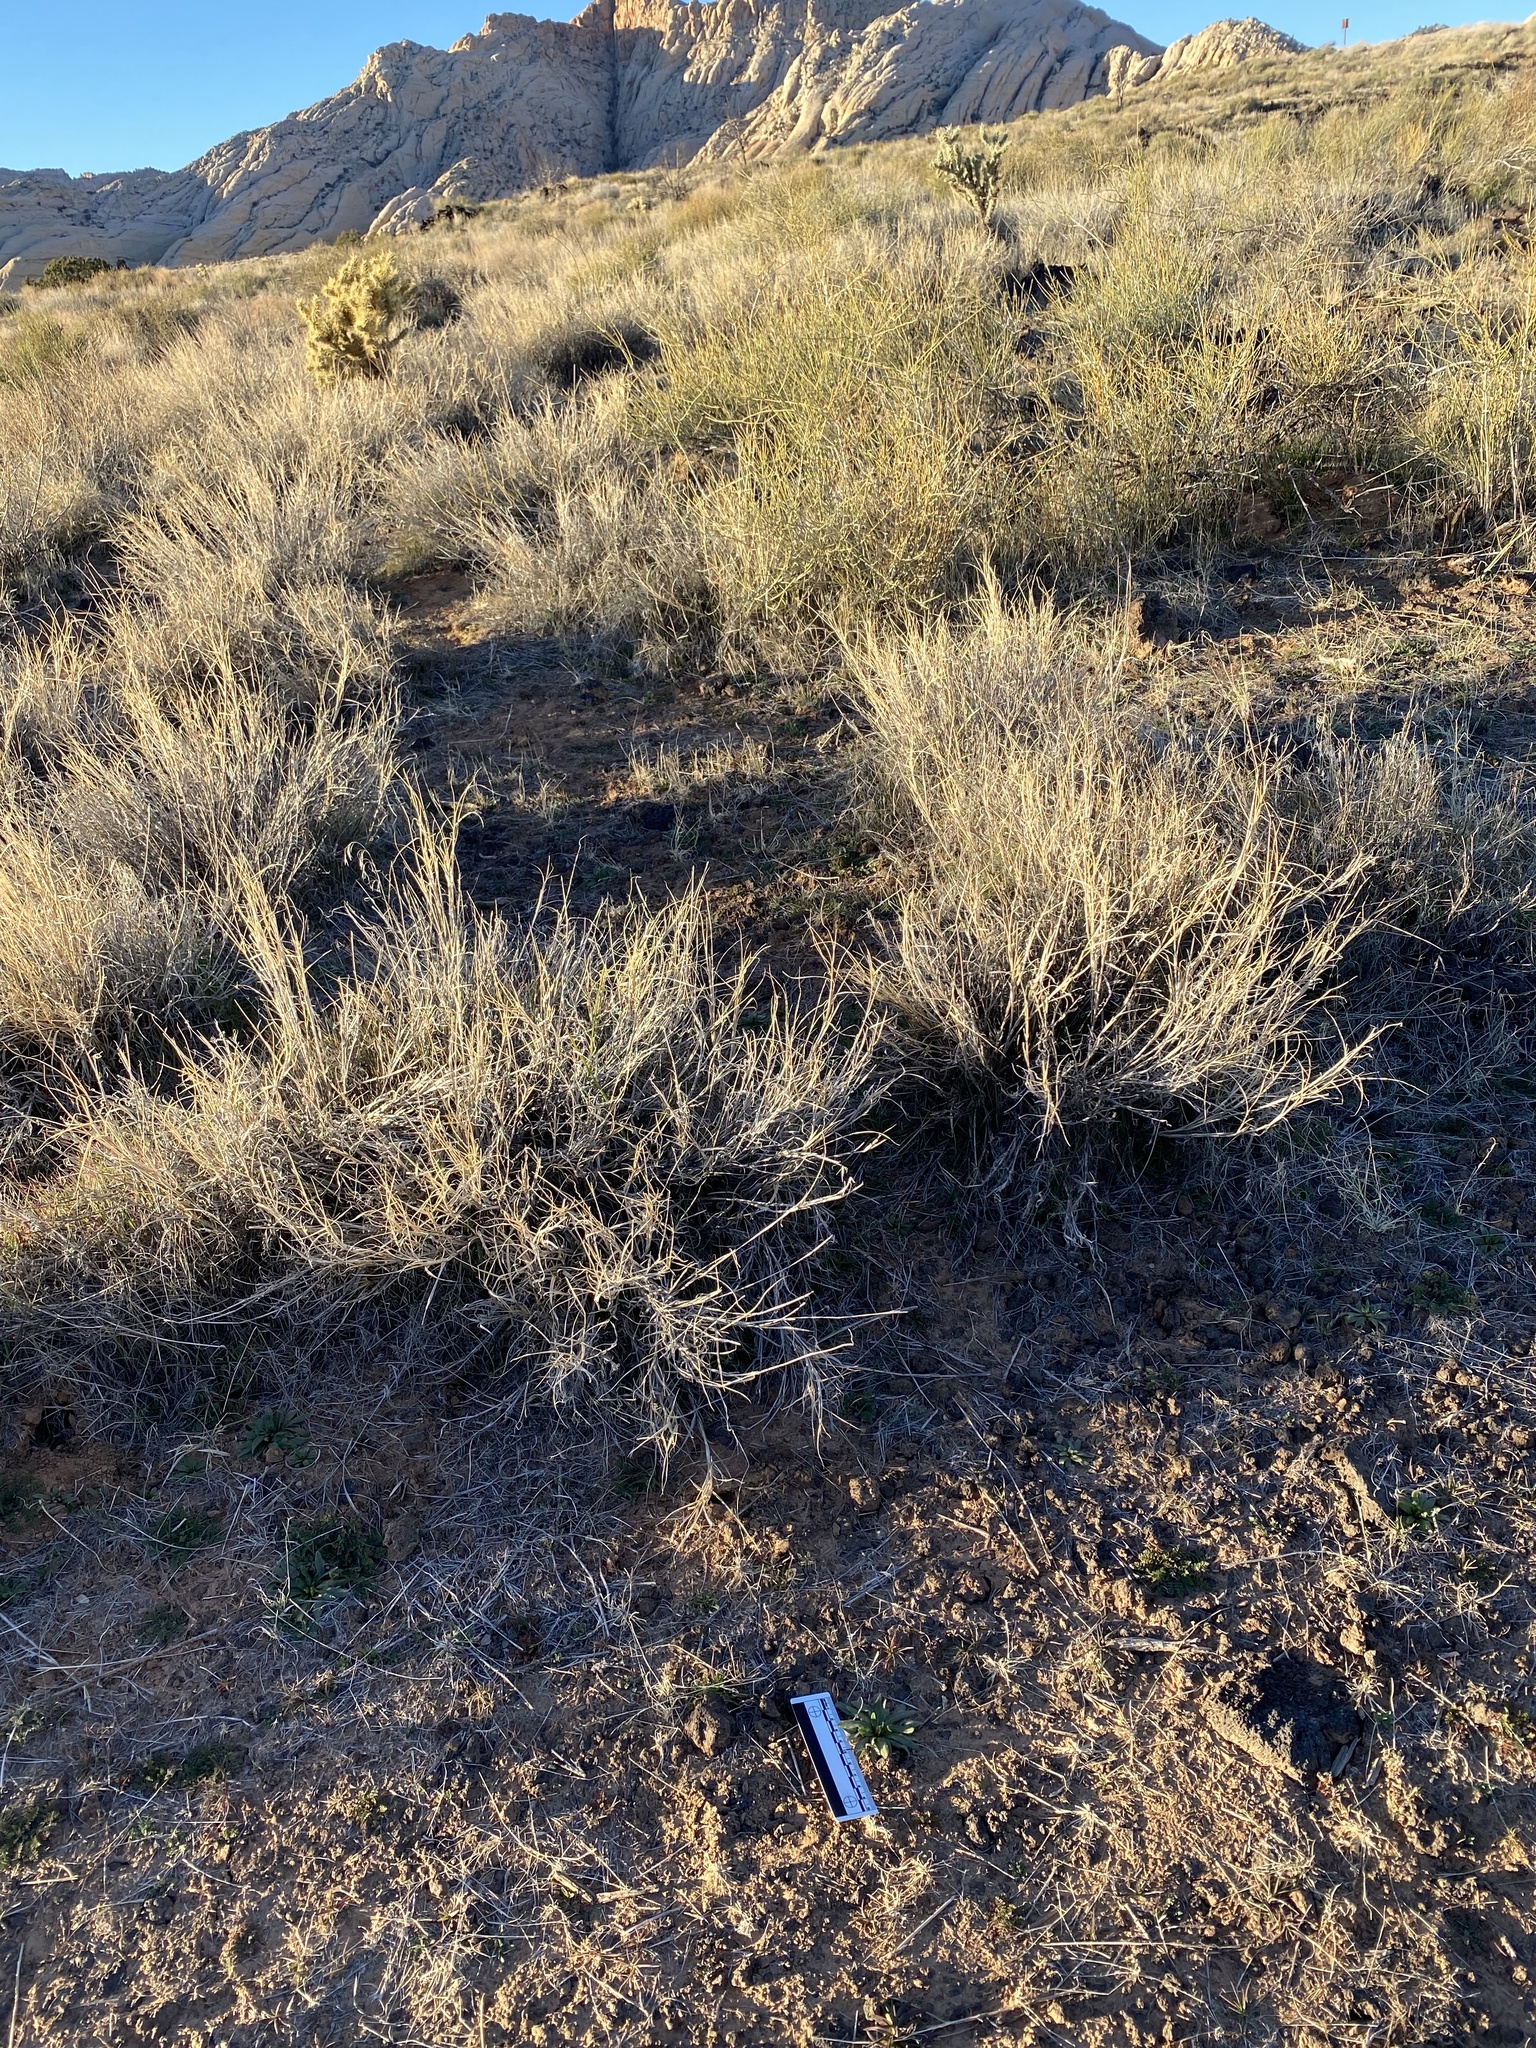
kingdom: Plantae
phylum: Tracheophyta
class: Magnoliopsida
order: Boraginales
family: Boraginaceae
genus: Plagiobothrys
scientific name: Plagiobothrys arizonicus
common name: Arizona popcorn-flower
